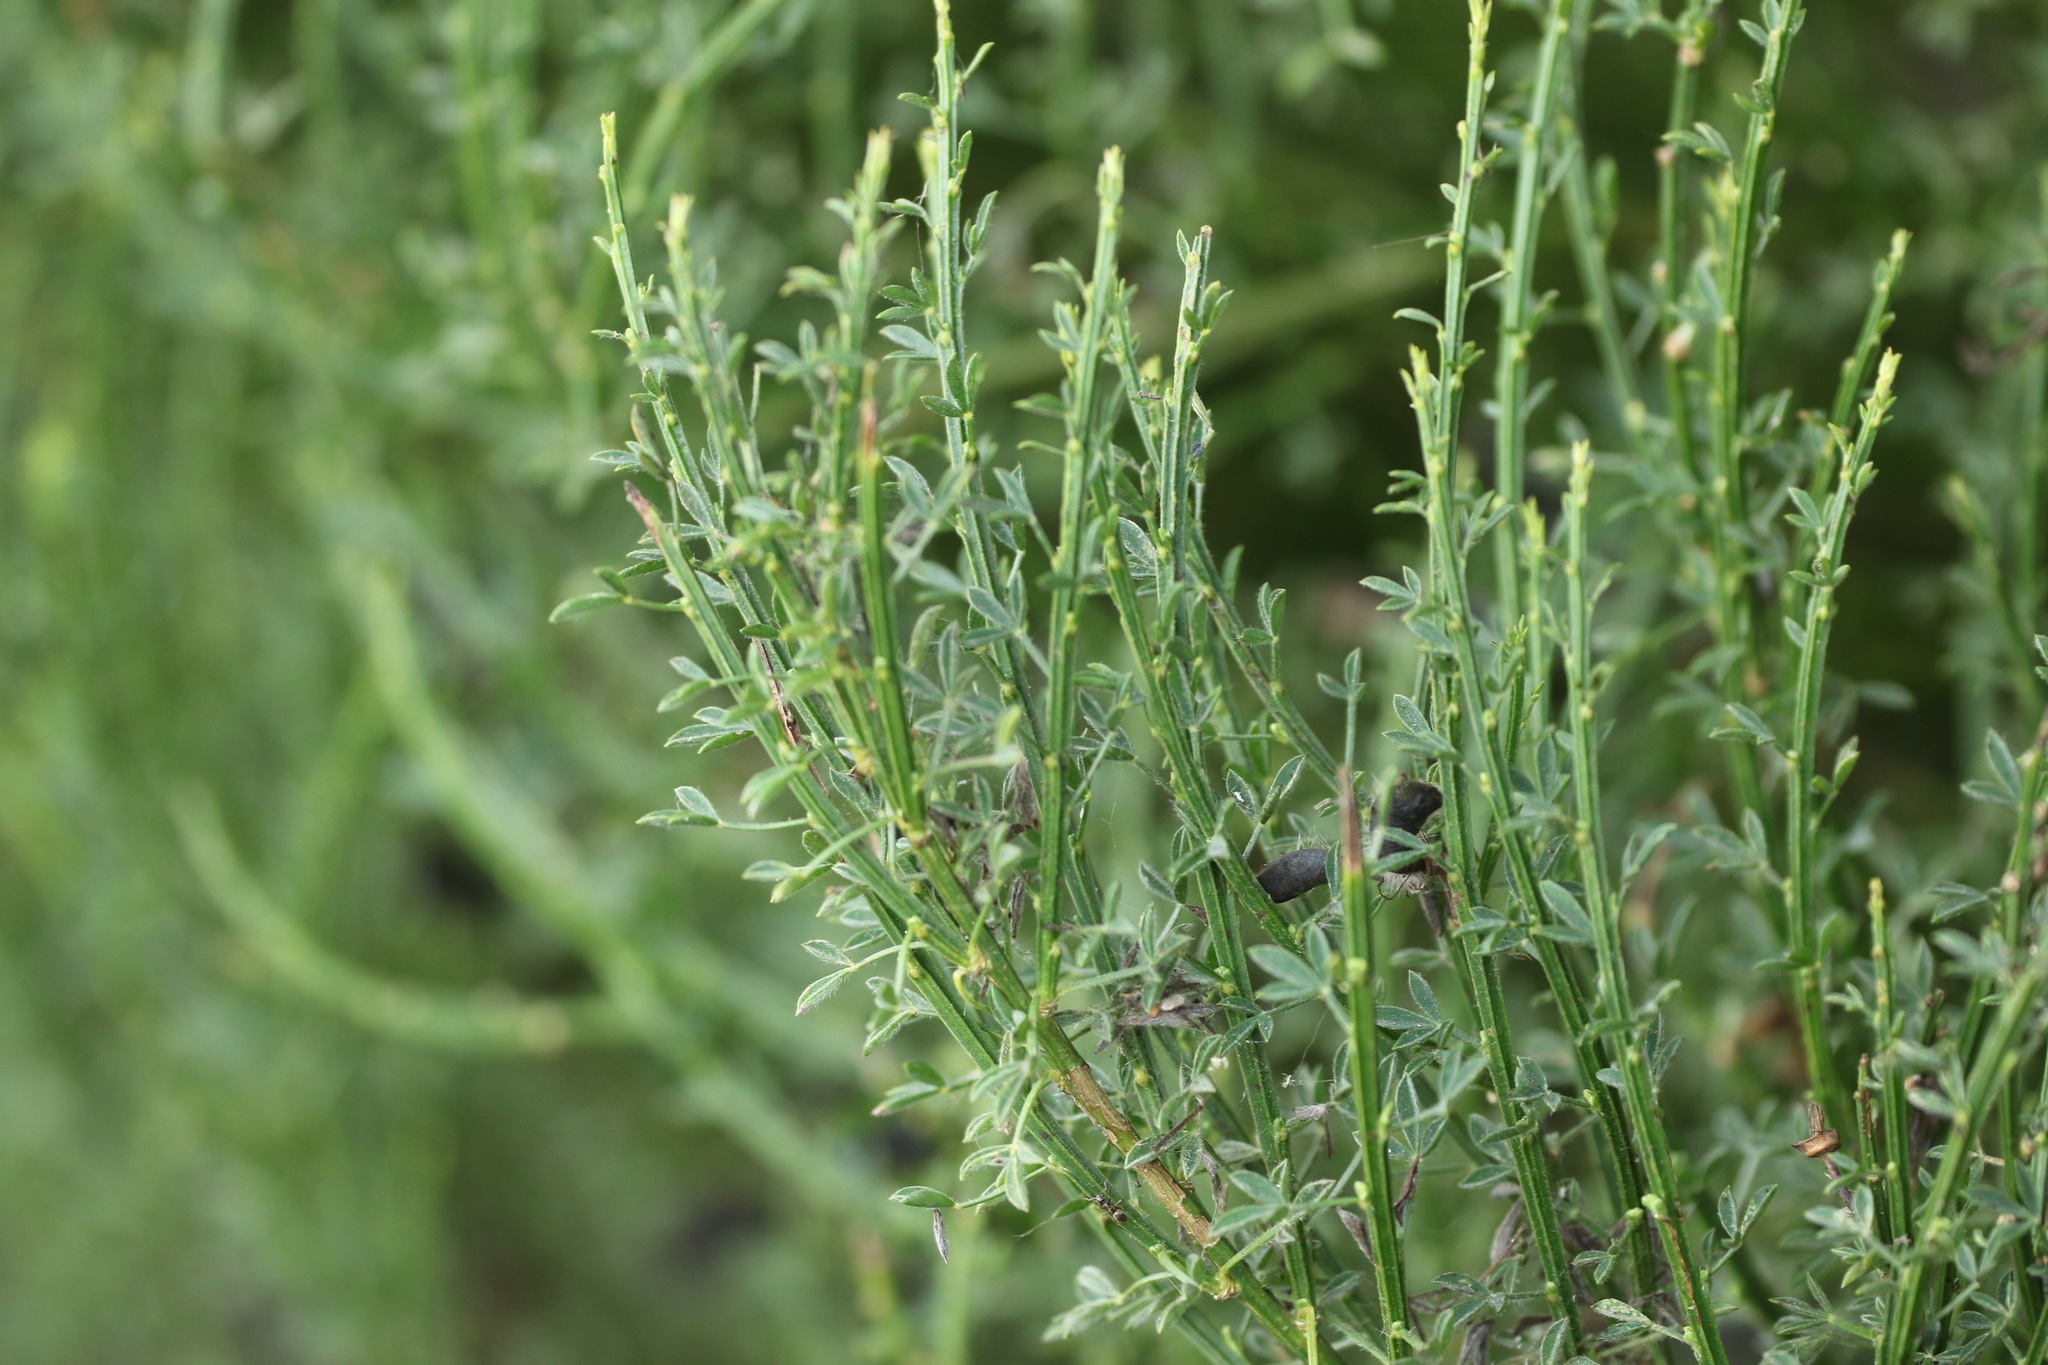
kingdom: Plantae
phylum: Tracheophyta
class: Magnoliopsida
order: Fabales
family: Fabaceae
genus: Cytisus
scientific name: Cytisus scoparius
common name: Scotch broom
